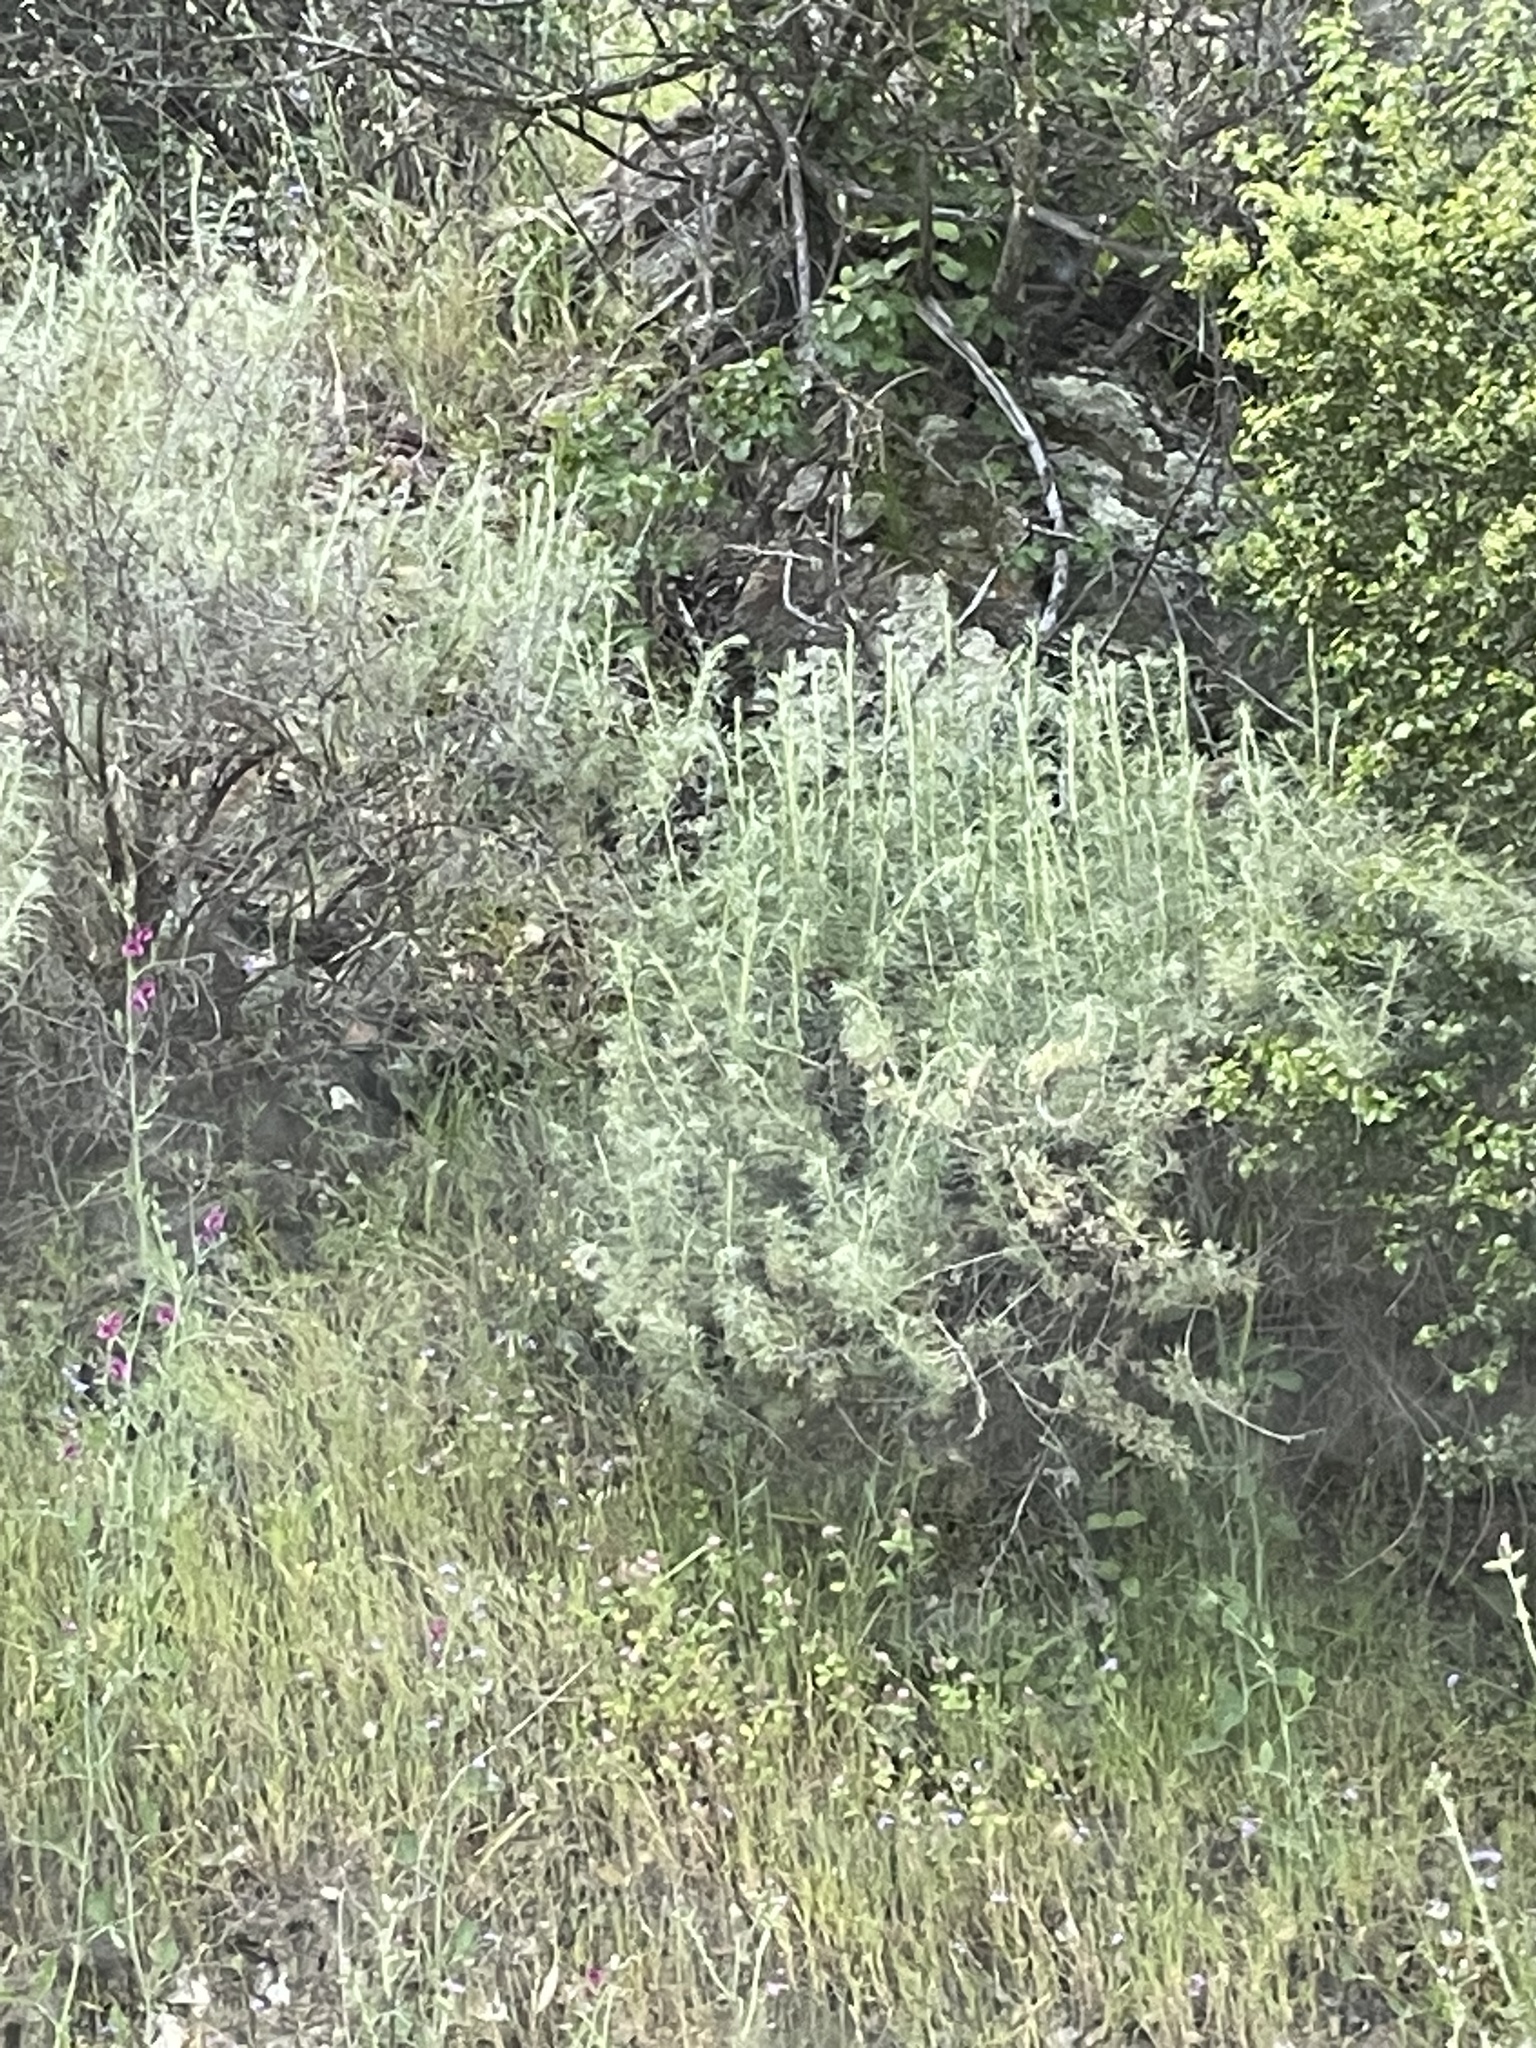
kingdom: Plantae
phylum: Tracheophyta
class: Magnoliopsida
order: Asterales
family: Asteraceae
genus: Artemisia
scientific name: Artemisia californica
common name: California sagebrush
